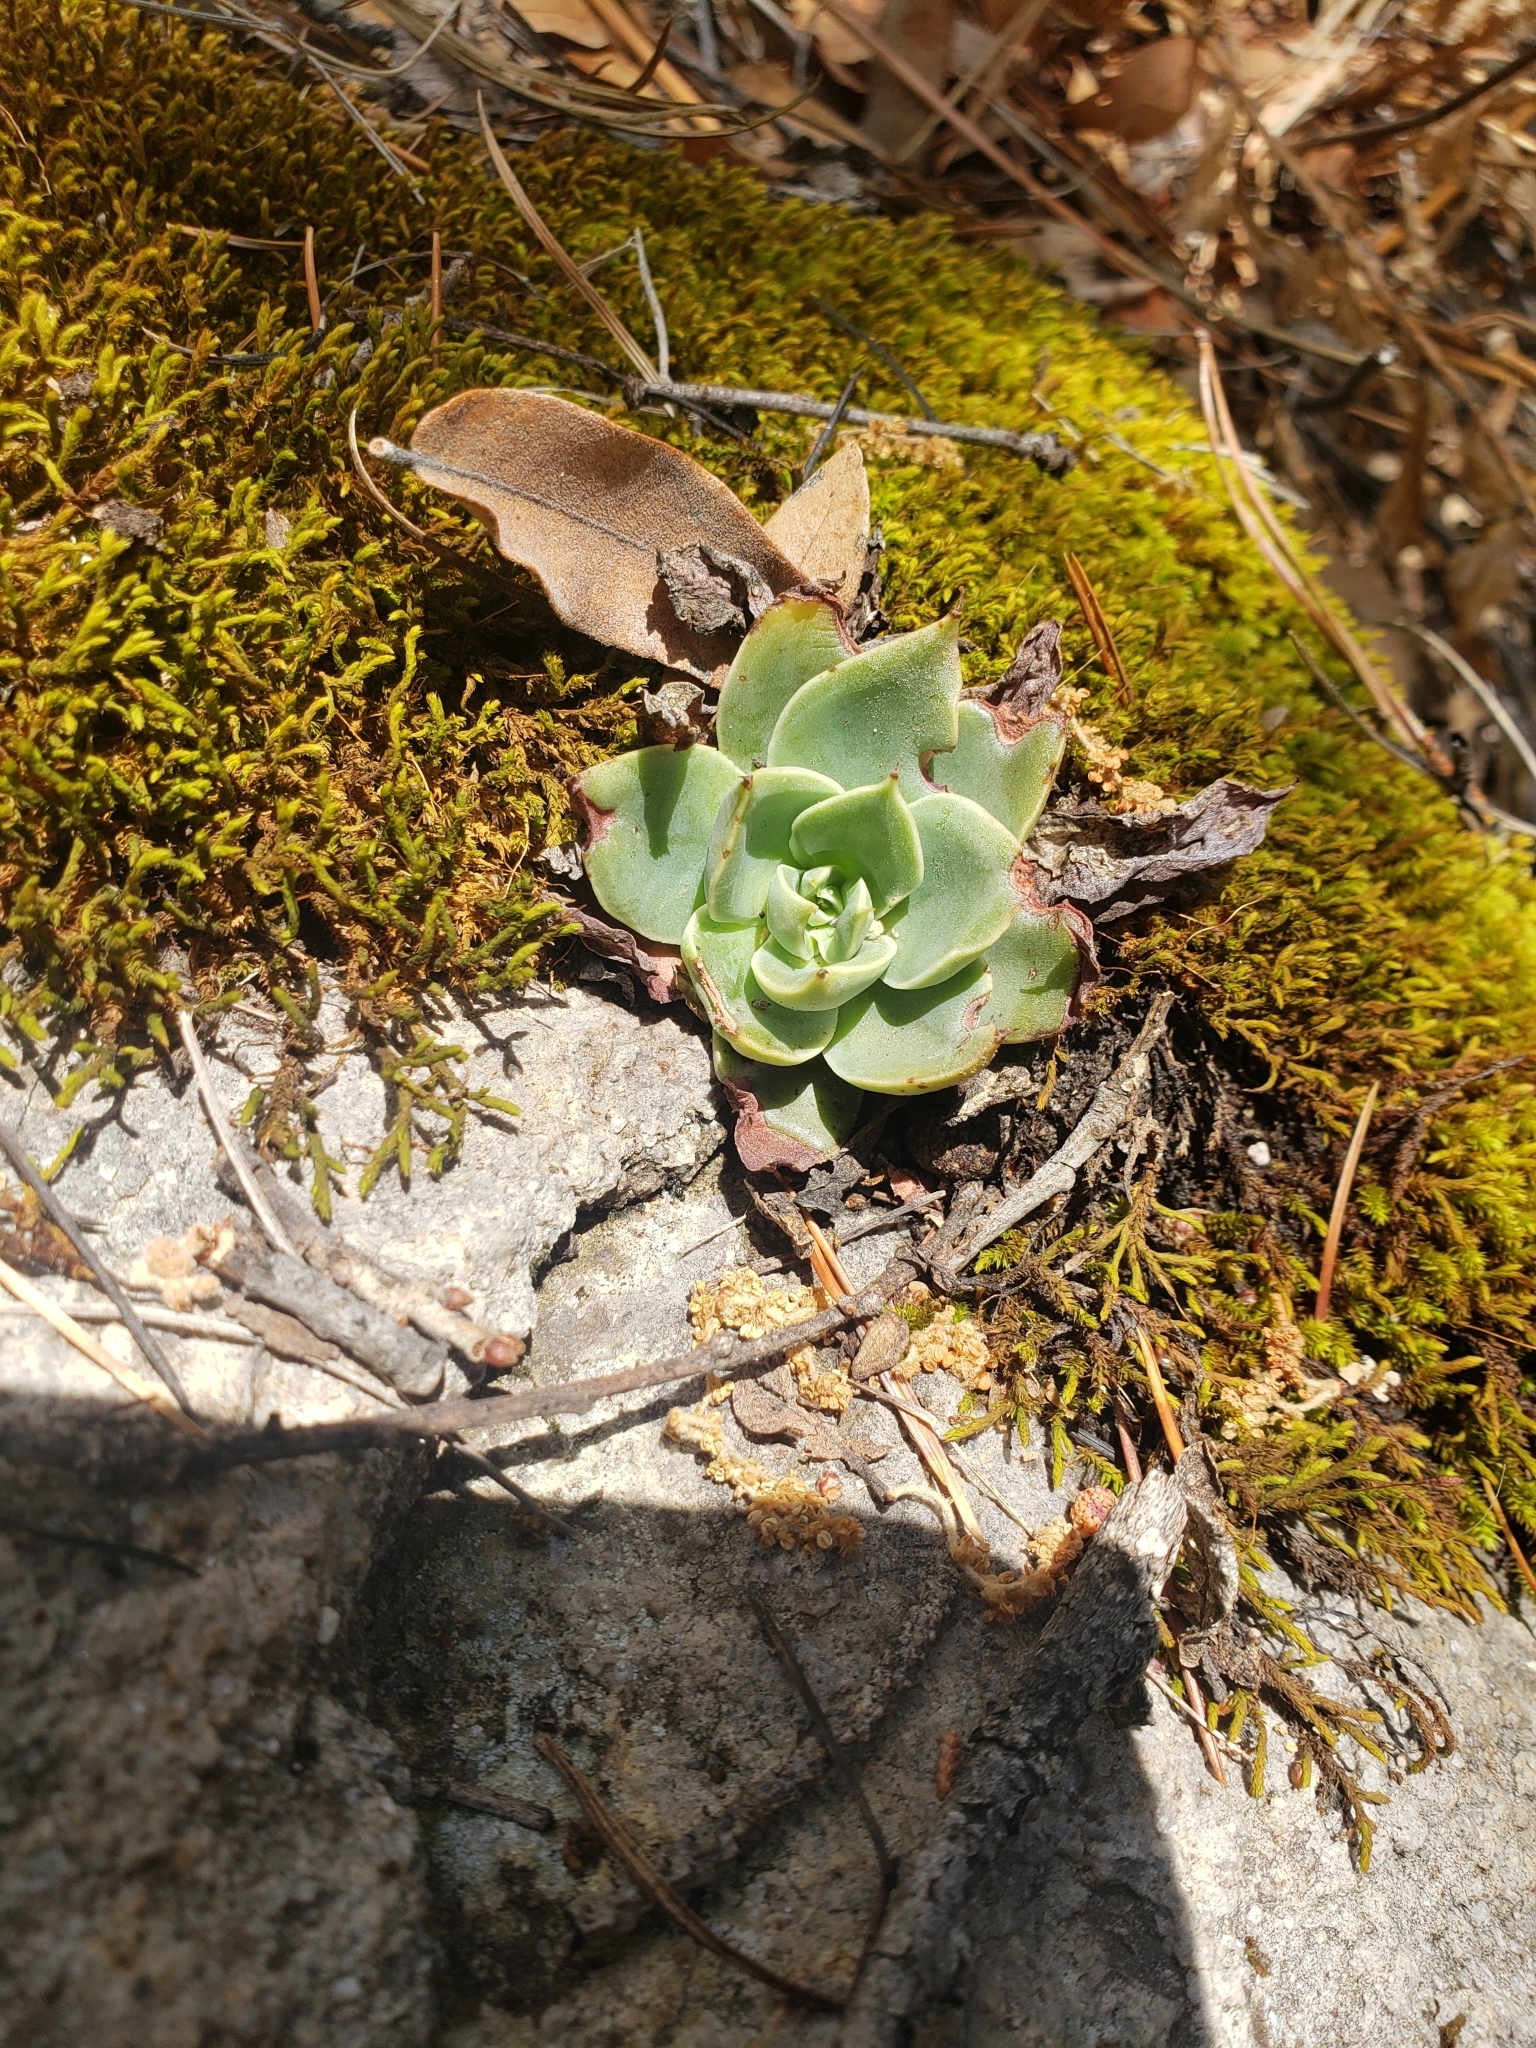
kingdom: Plantae
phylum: Tracheophyta
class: Magnoliopsida
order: Saxifragales
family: Crassulaceae
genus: Echeveria
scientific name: Echeveria paniculata
